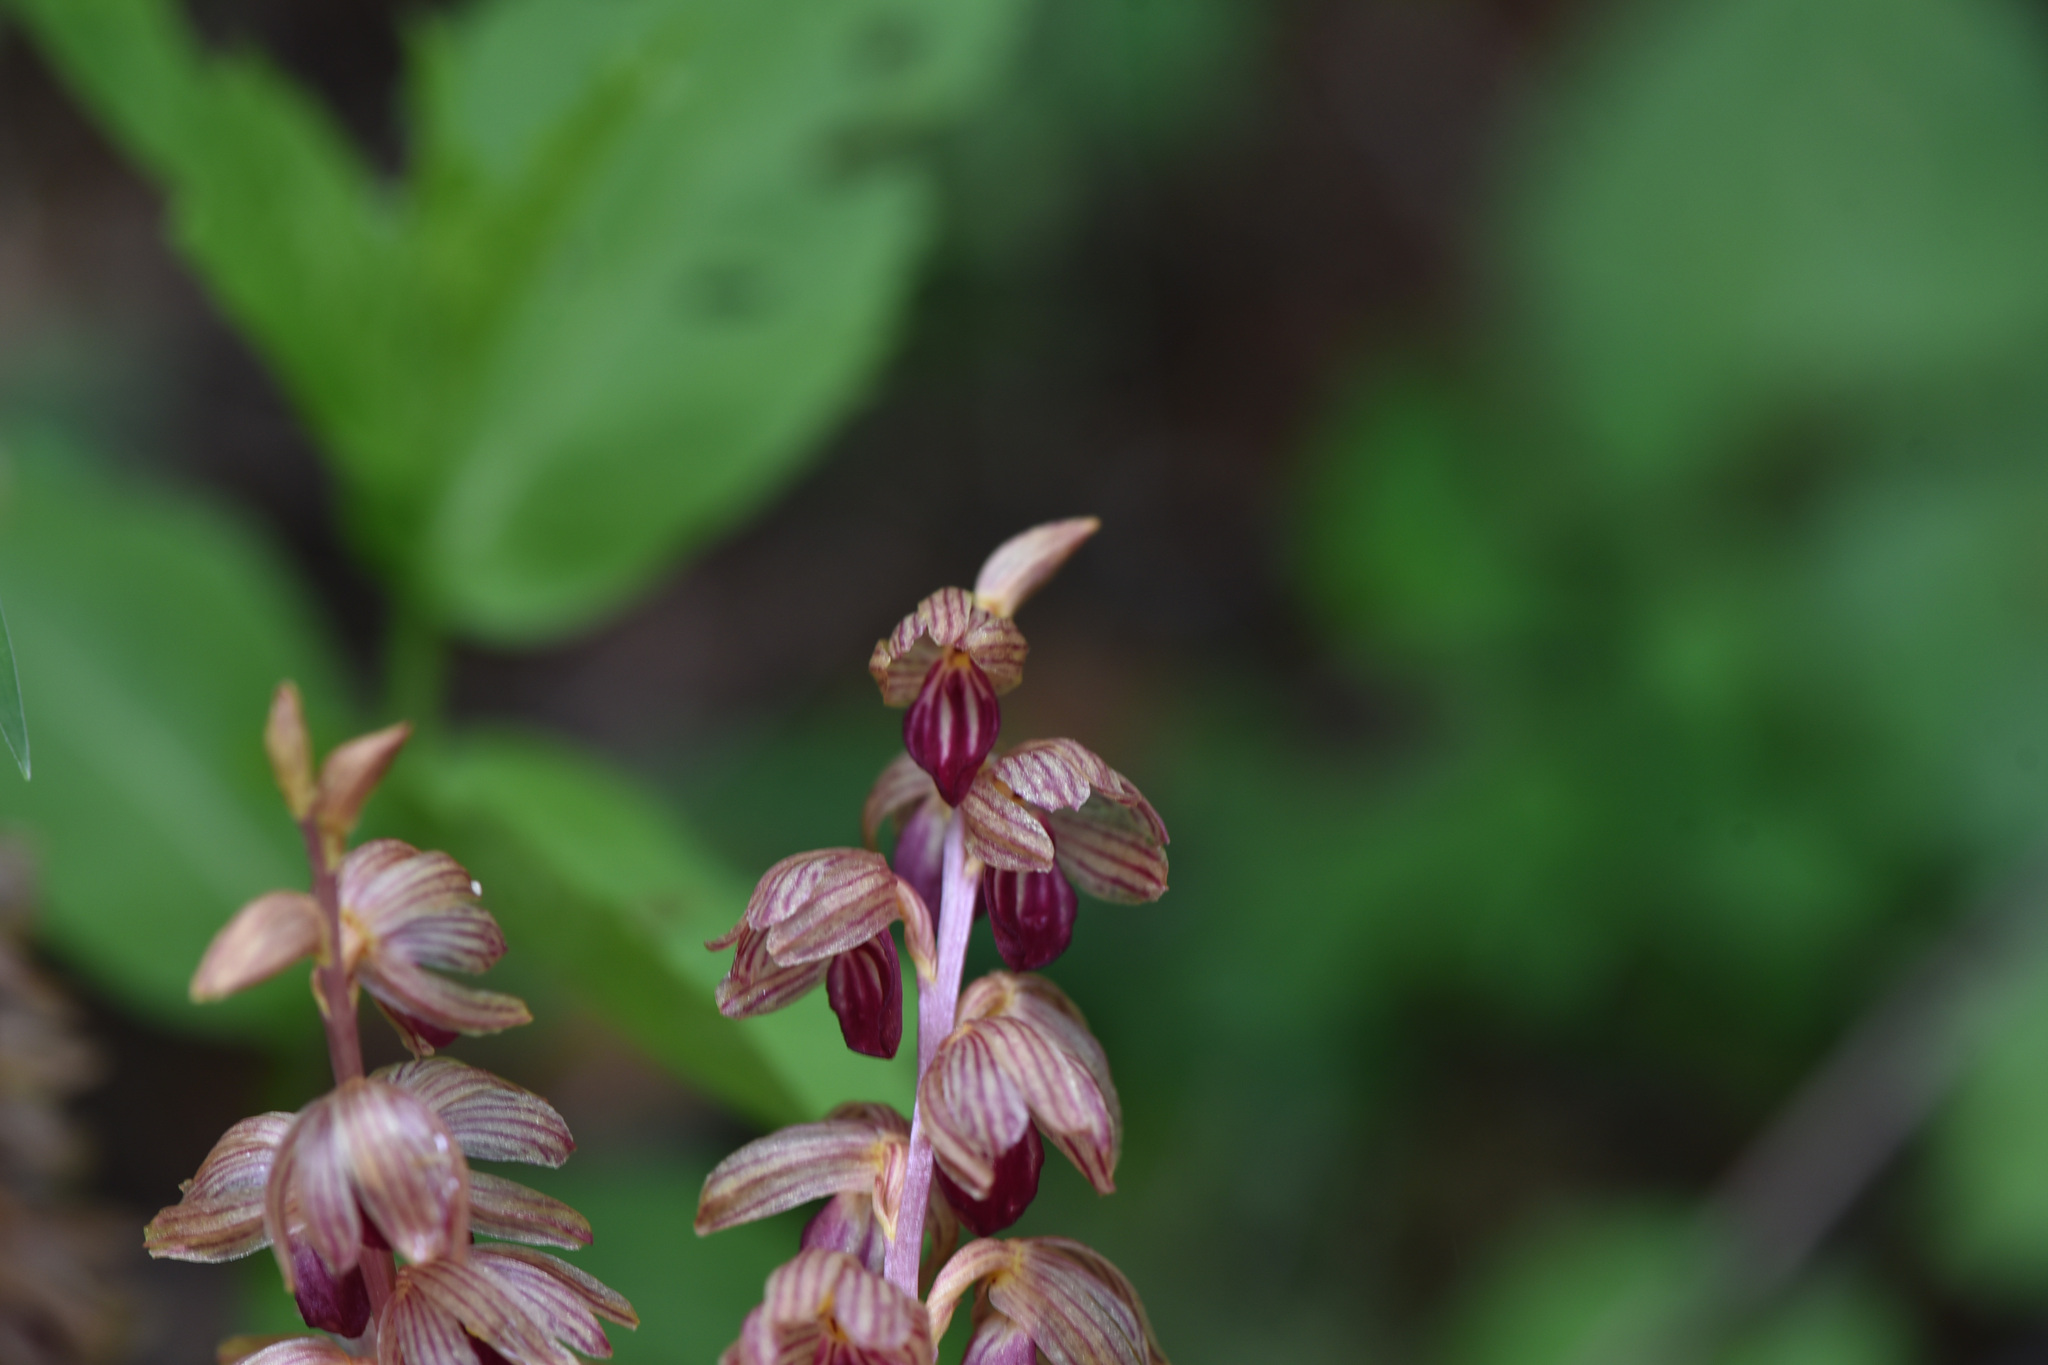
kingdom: Plantae
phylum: Tracheophyta
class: Liliopsida
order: Asparagales
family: Orchidaceae
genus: Corallorhiza
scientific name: Corallorhiza striata
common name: Hooded coralroot
